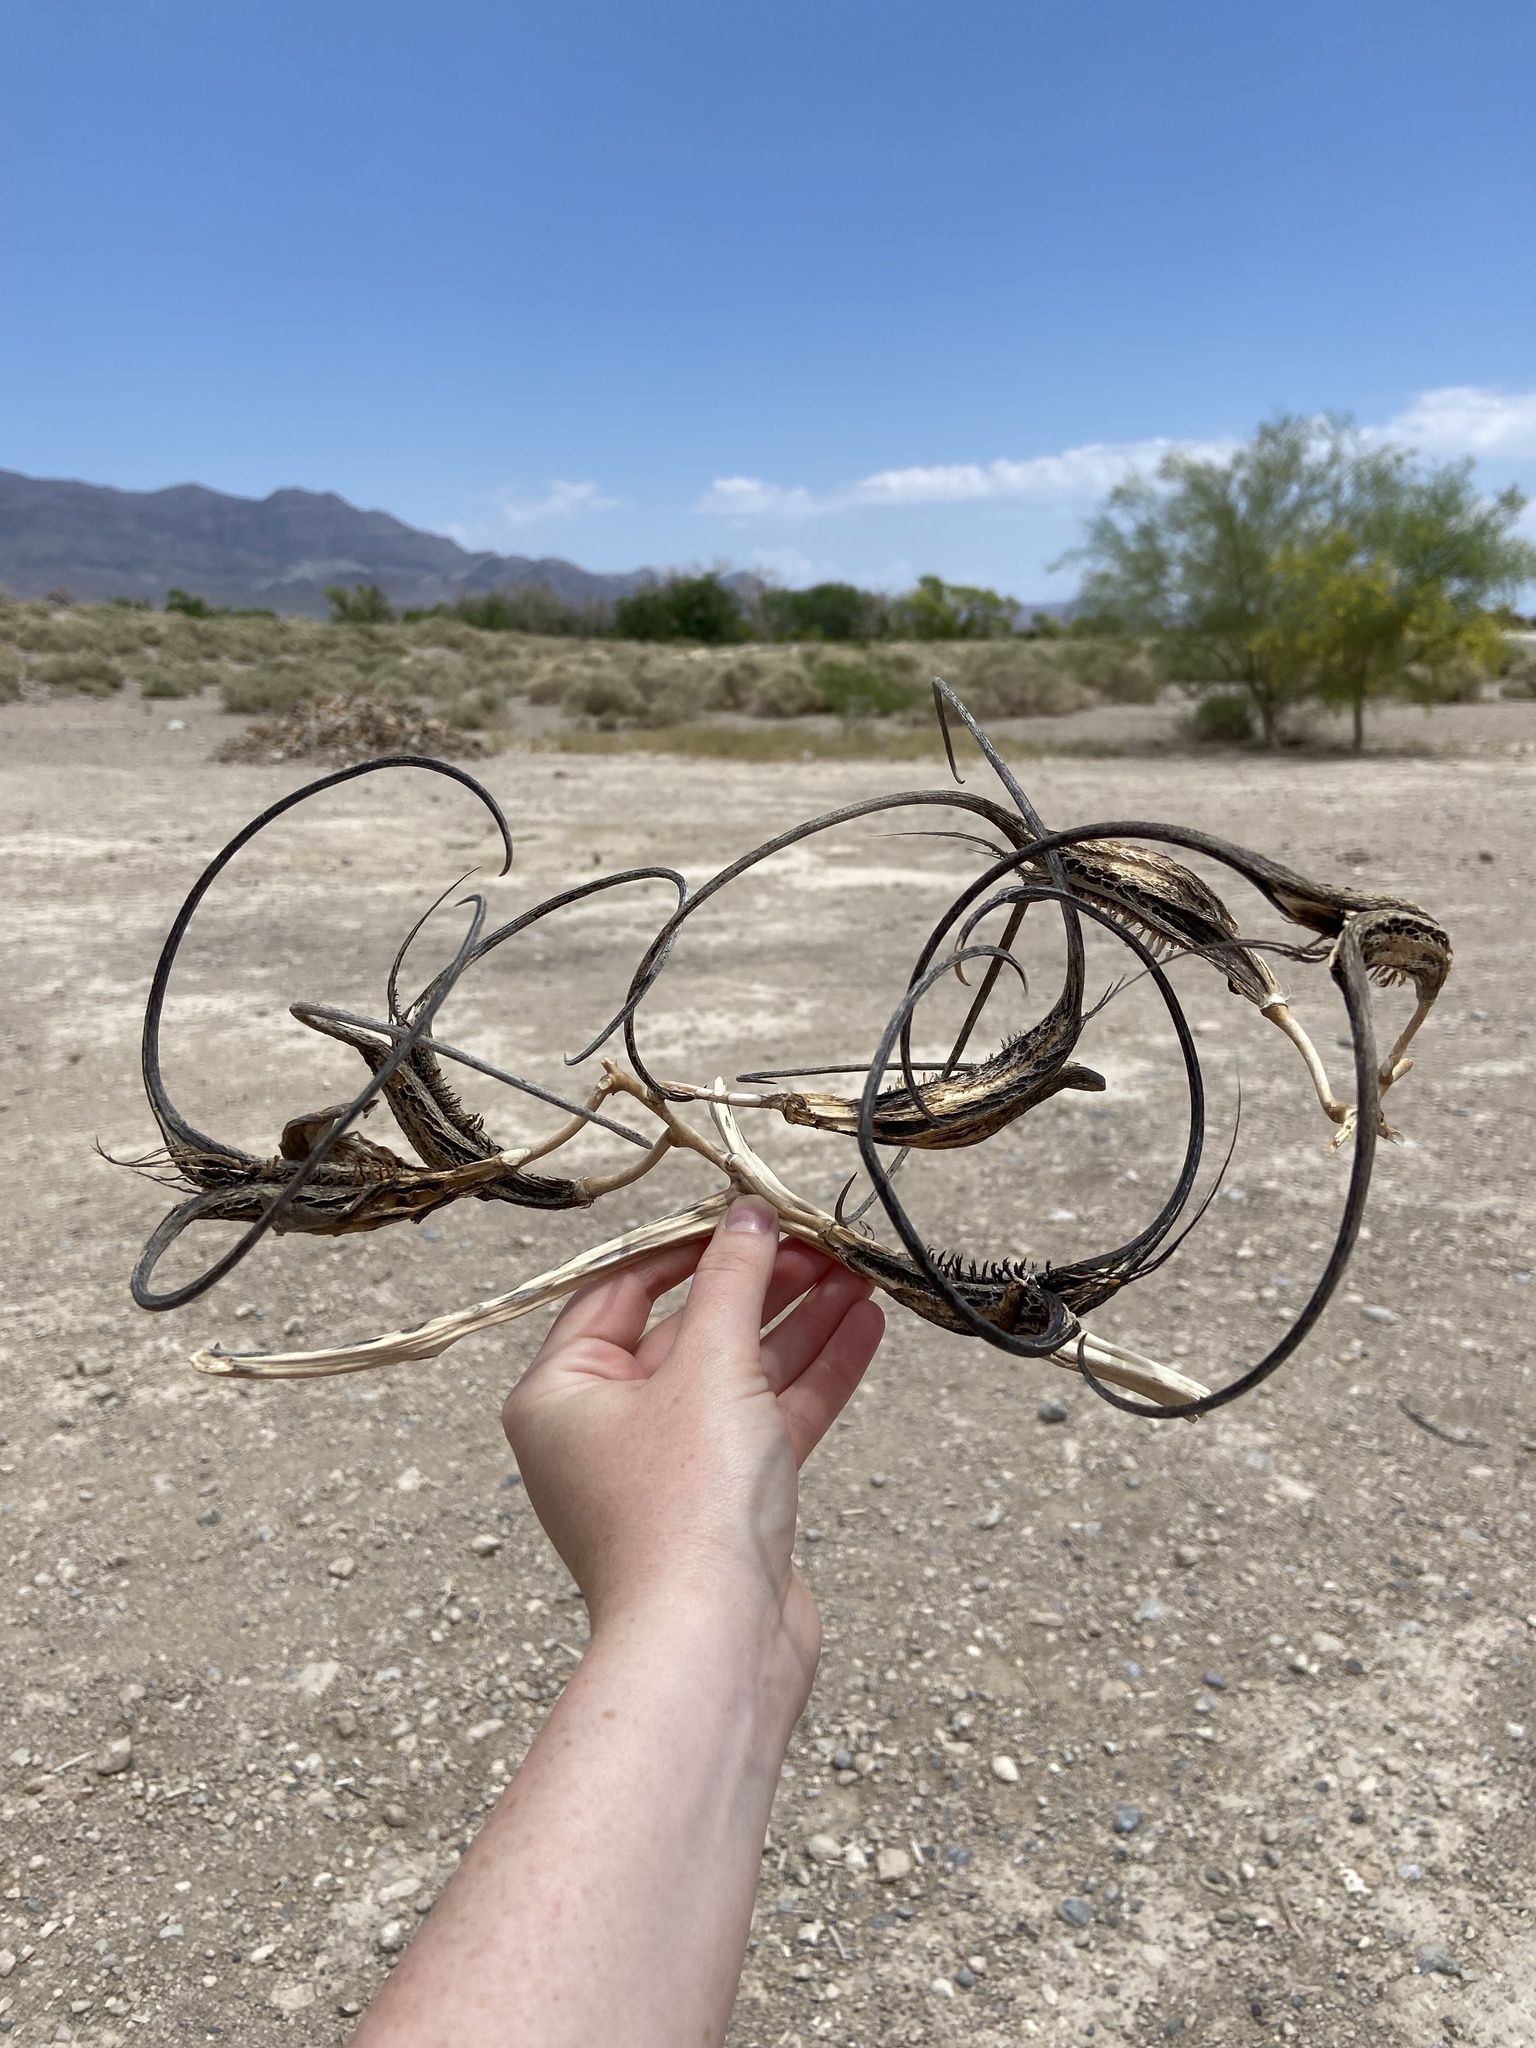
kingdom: Plantae
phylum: Tracheophyta
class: Magnoliopsida
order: Lamiales
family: Martyniaceae
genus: Proboscidea
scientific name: Proboscidea althaeifolia
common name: Desert unicorn-plant
